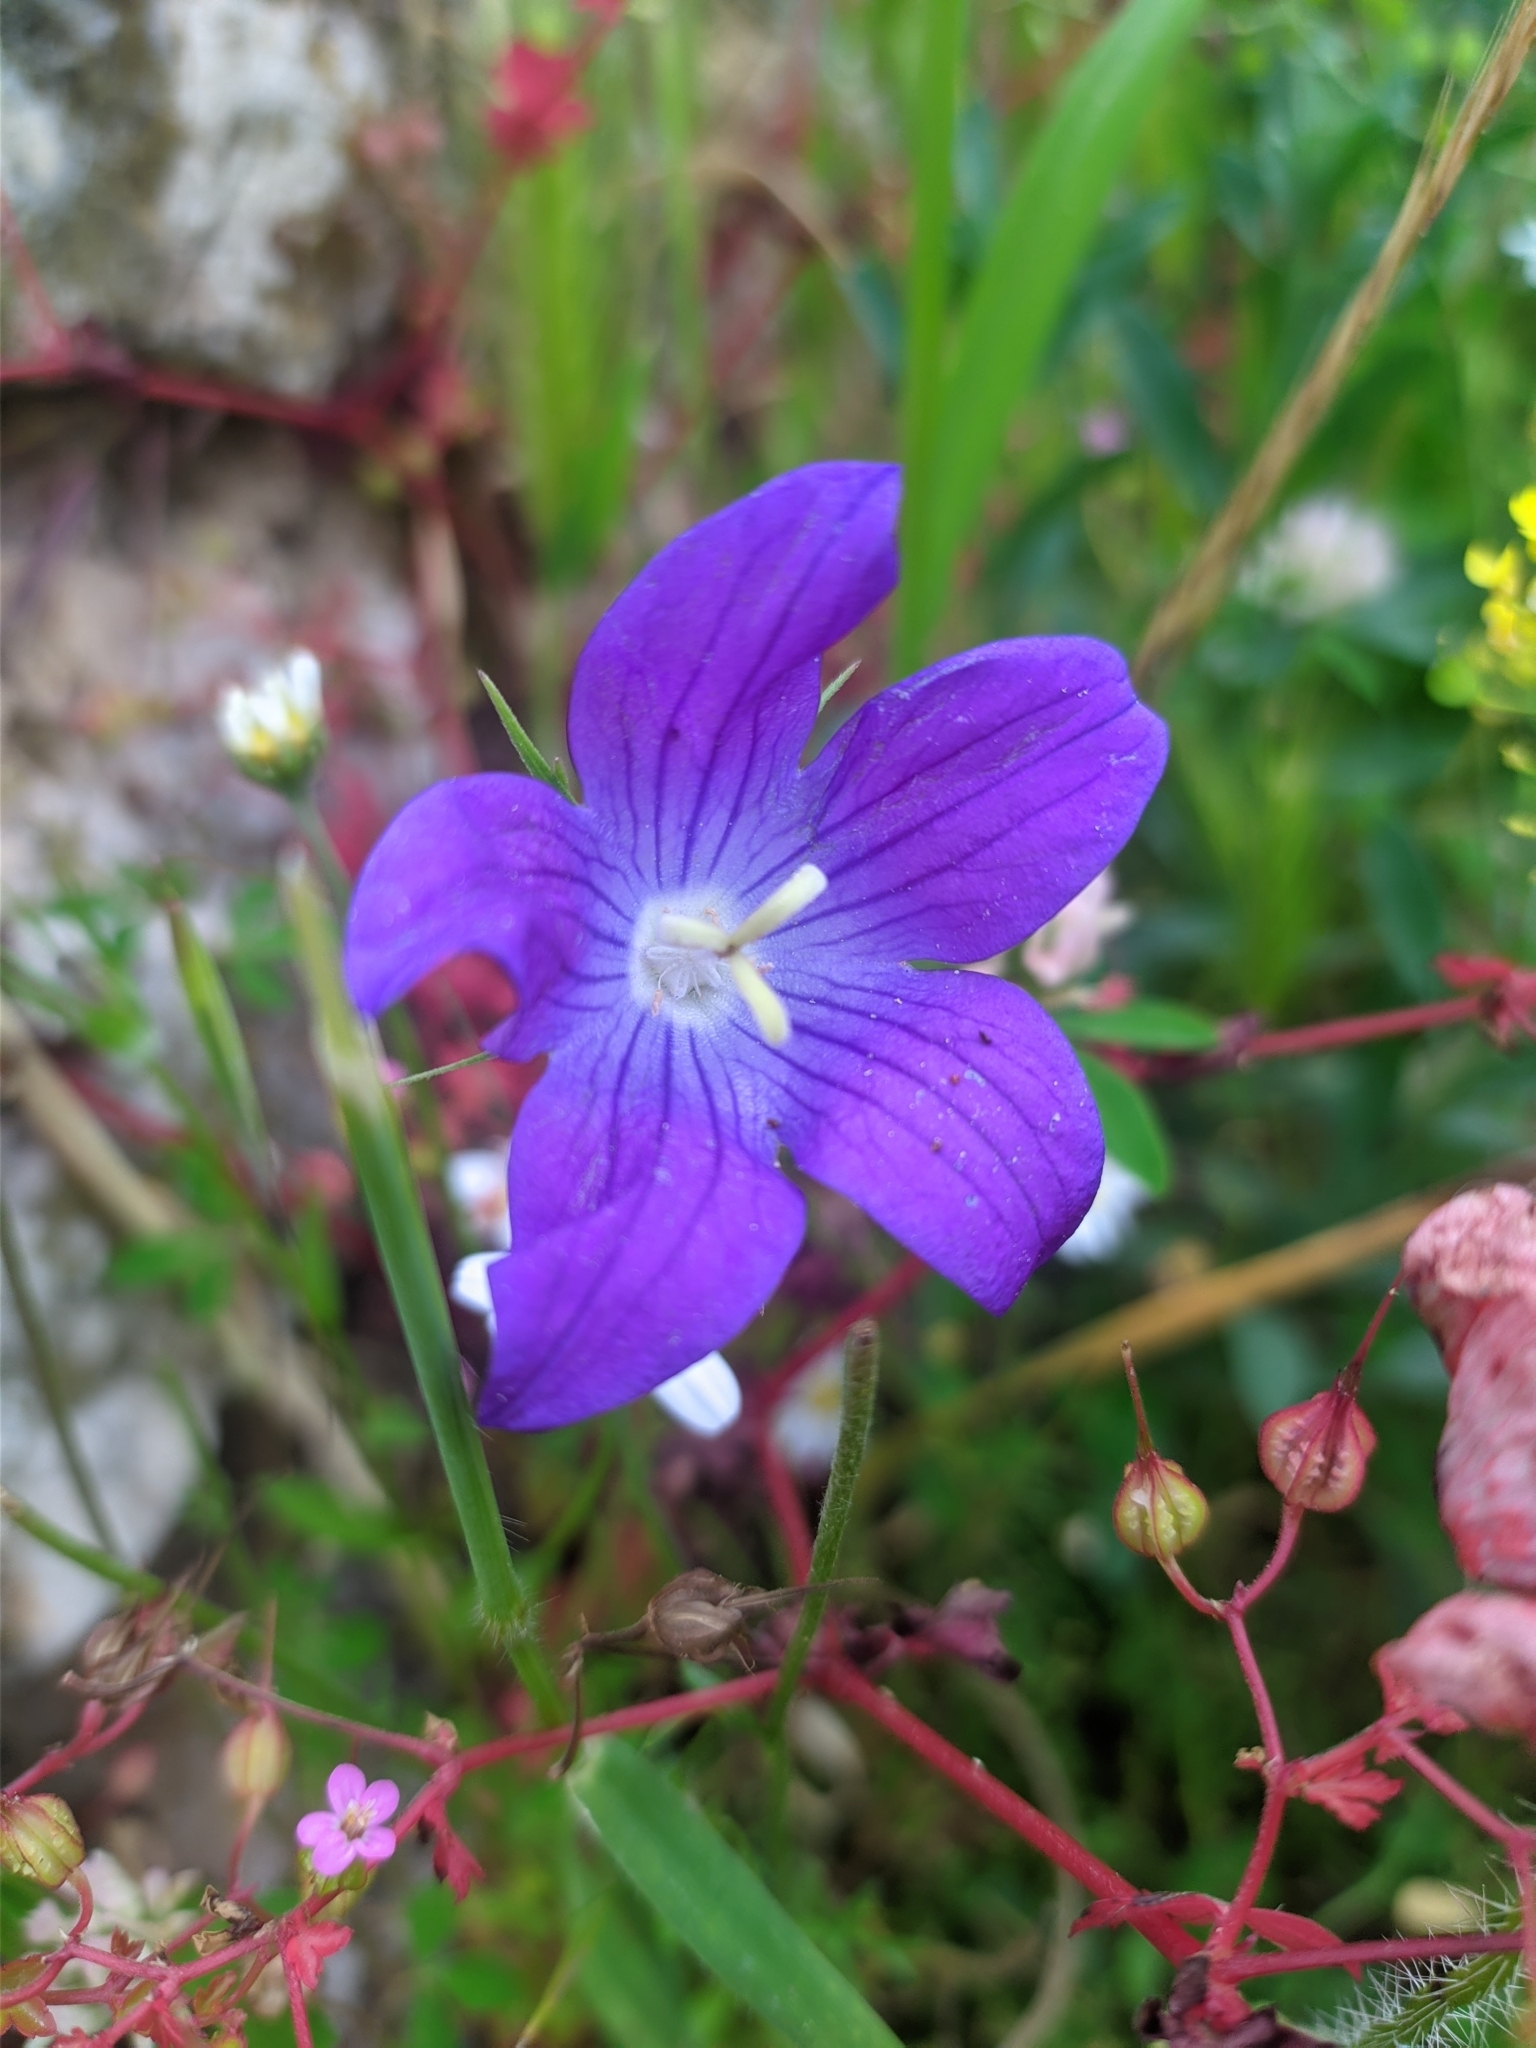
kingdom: Plantae
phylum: Tracheophyta
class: Magnoliopsida
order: Asterales
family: Campanulaceae
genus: Campanula
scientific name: Campanula ramosissima
